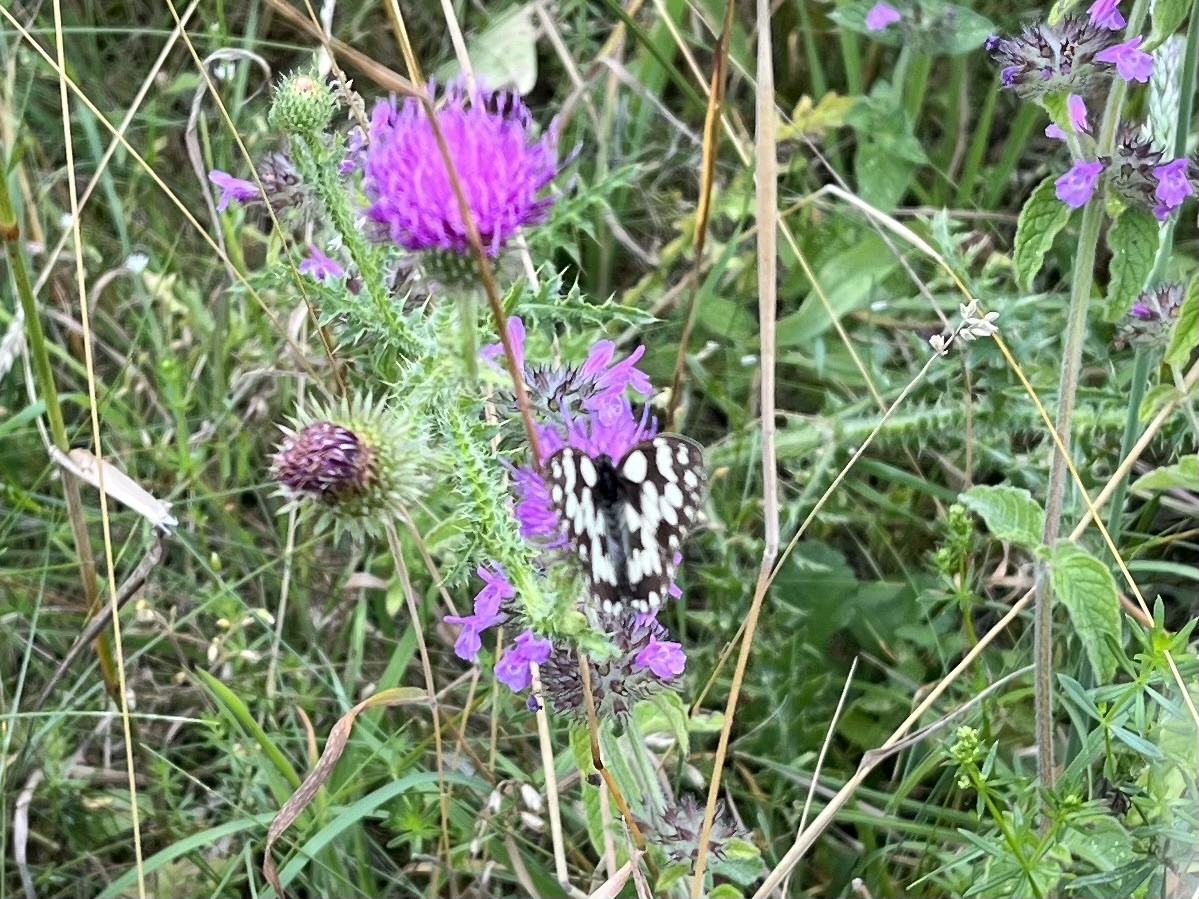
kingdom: Animalia
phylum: Arthropoda
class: Insecta
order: Lepidoptera
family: Nymphalidae
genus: Melanargia
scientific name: Melanargia galathea
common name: Marbled white
